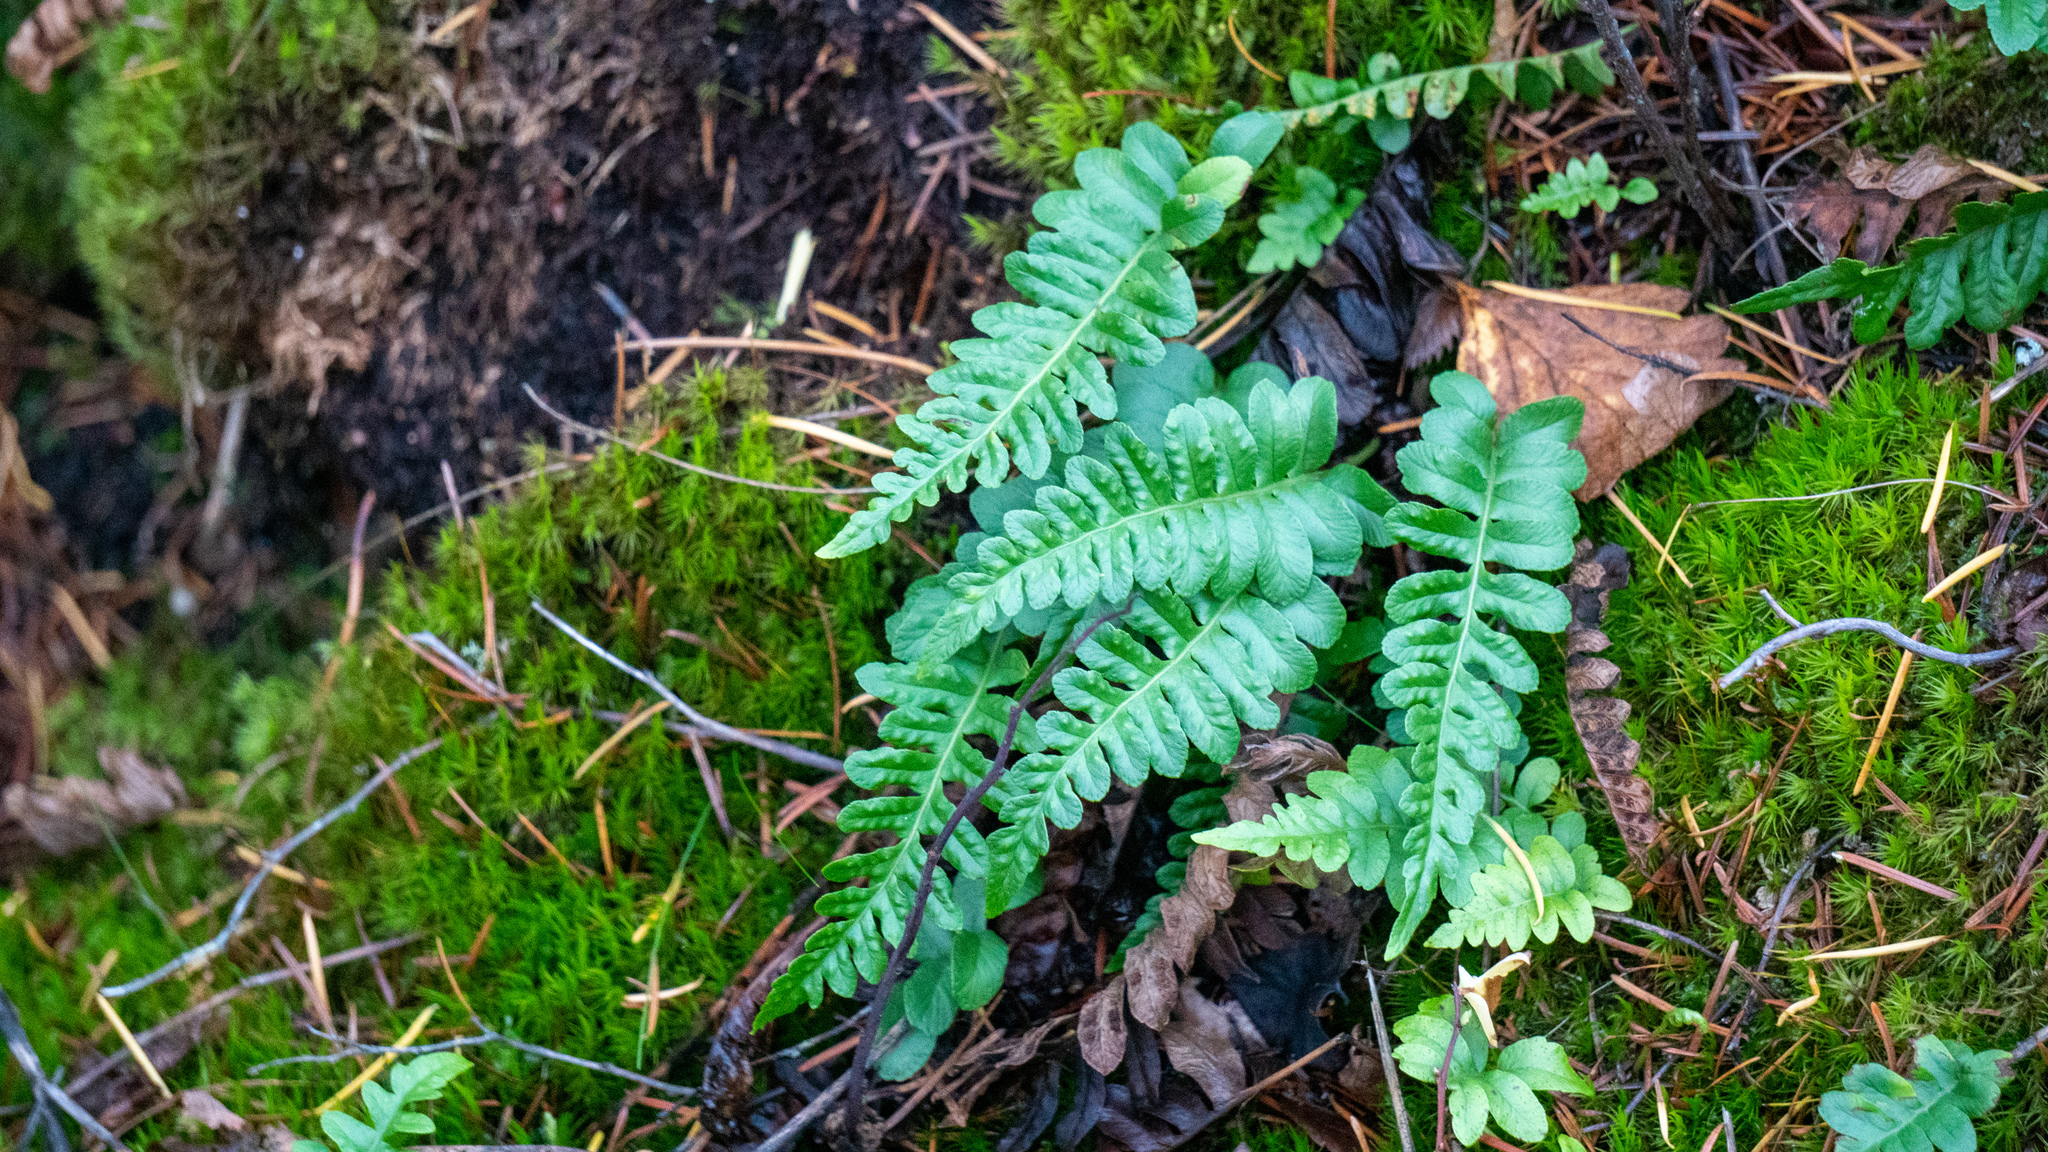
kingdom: Plantae
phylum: Tracheophyta
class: Polypodiopsida
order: Polypodiales
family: Polypodiaceae
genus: Polypodium
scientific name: Polypodium hesperium
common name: Western polypody
